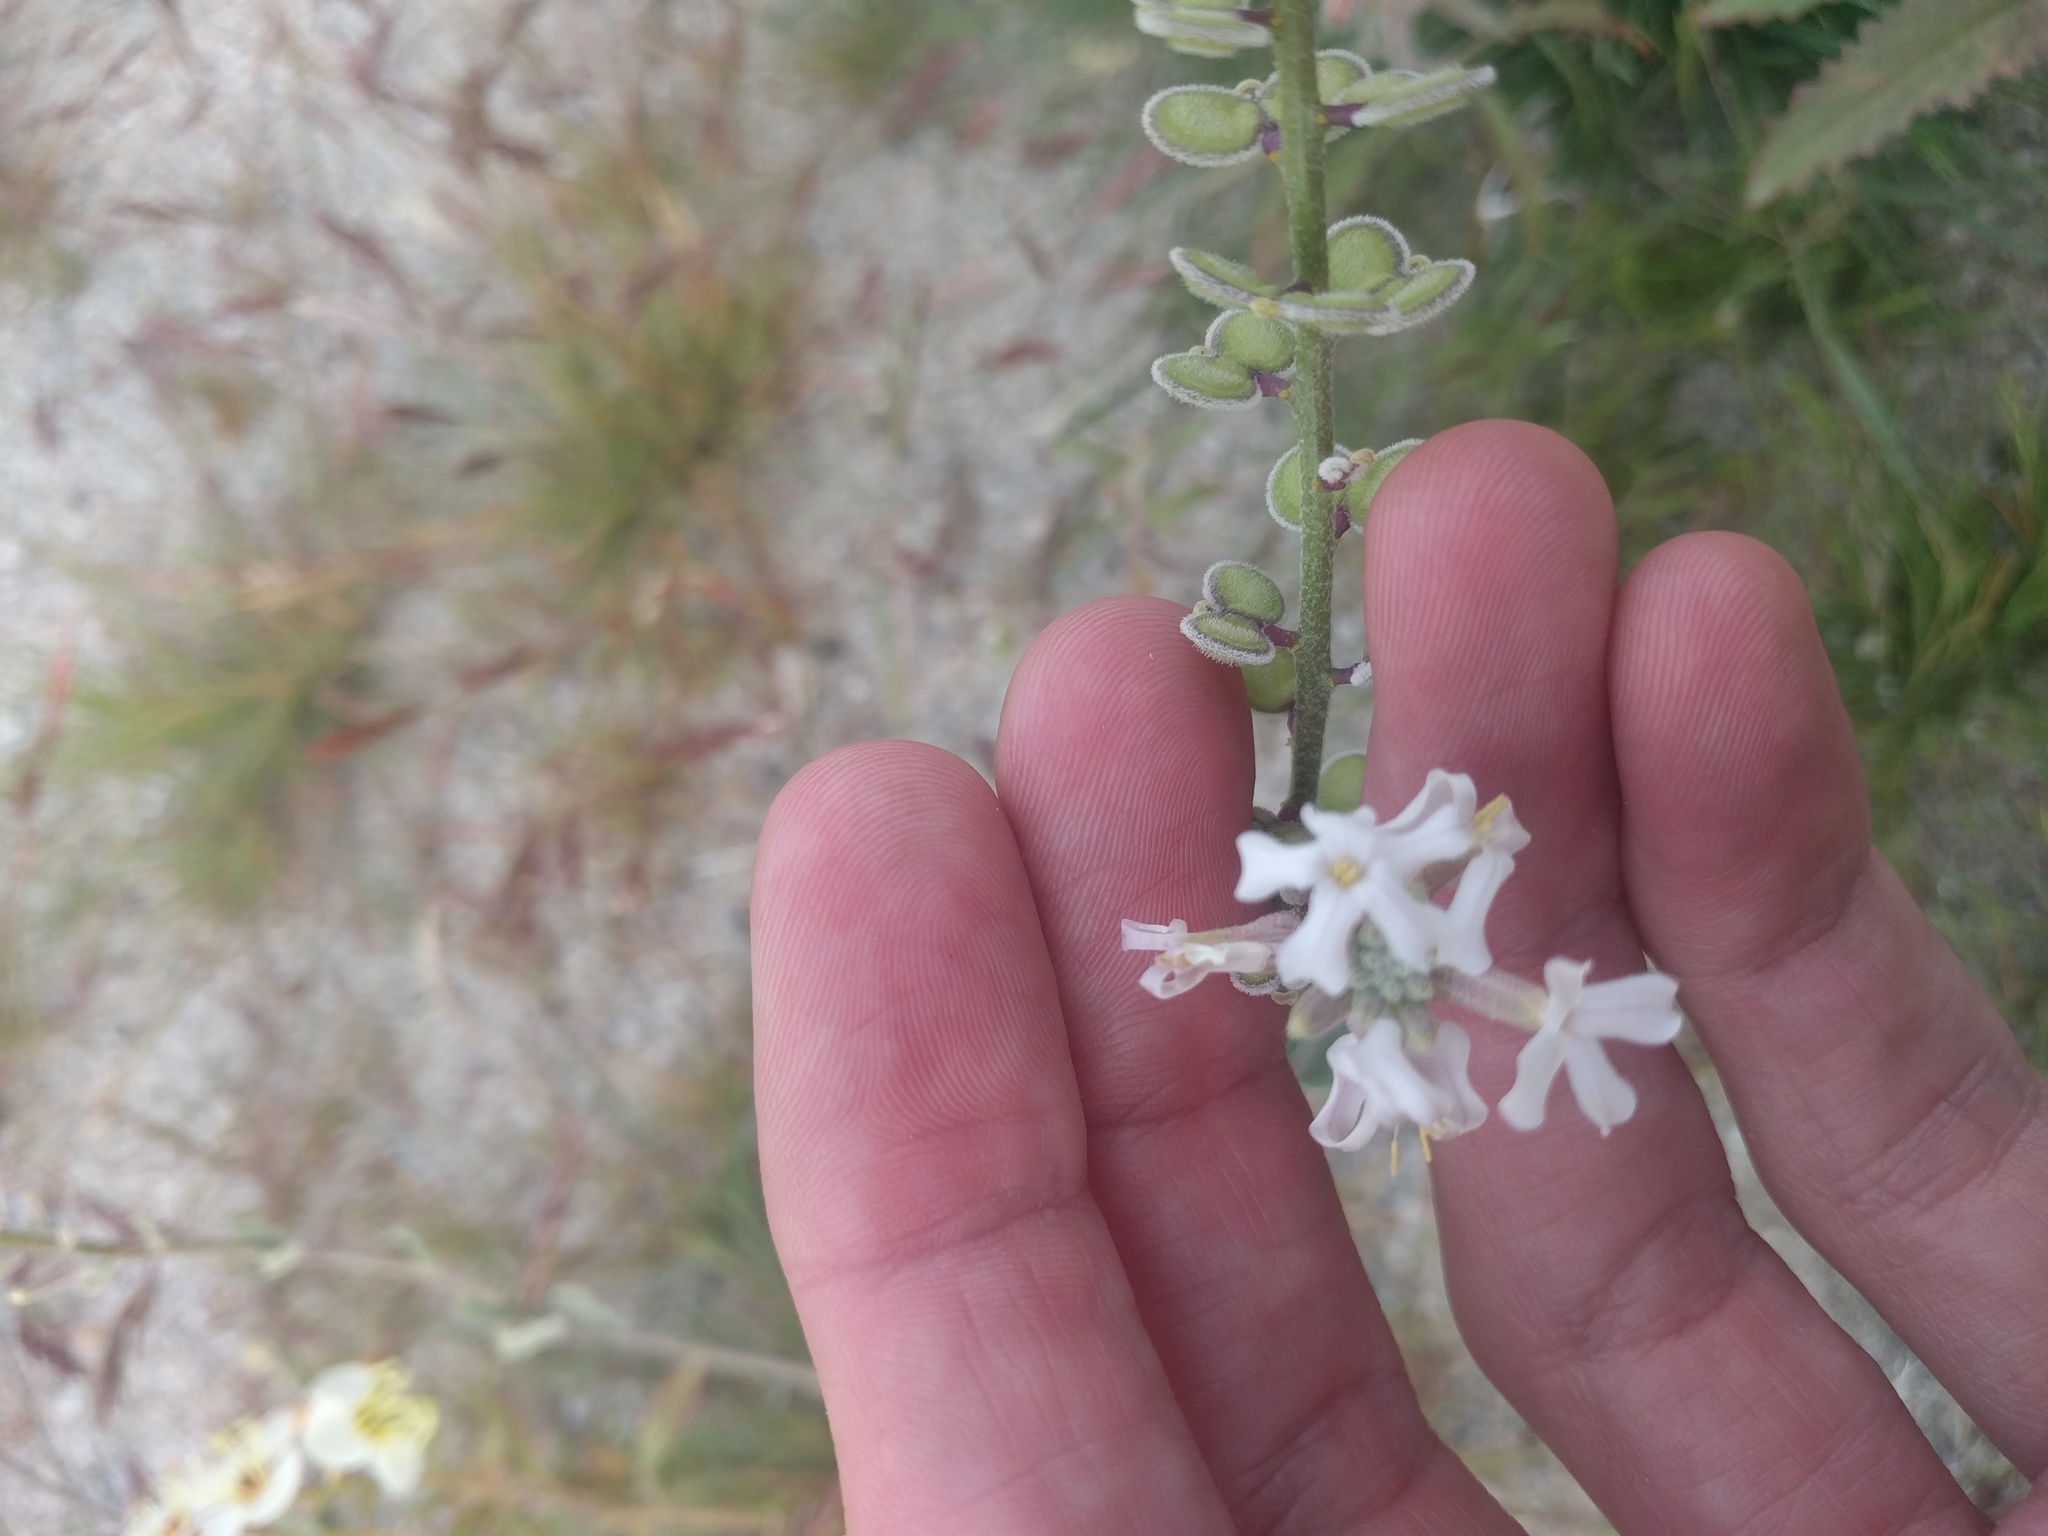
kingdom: Plantae
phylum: Tracheophyta
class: Magnoliopsida
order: Brassicales
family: Brassicaceae
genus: Dithyrea
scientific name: Dithyrea californica
